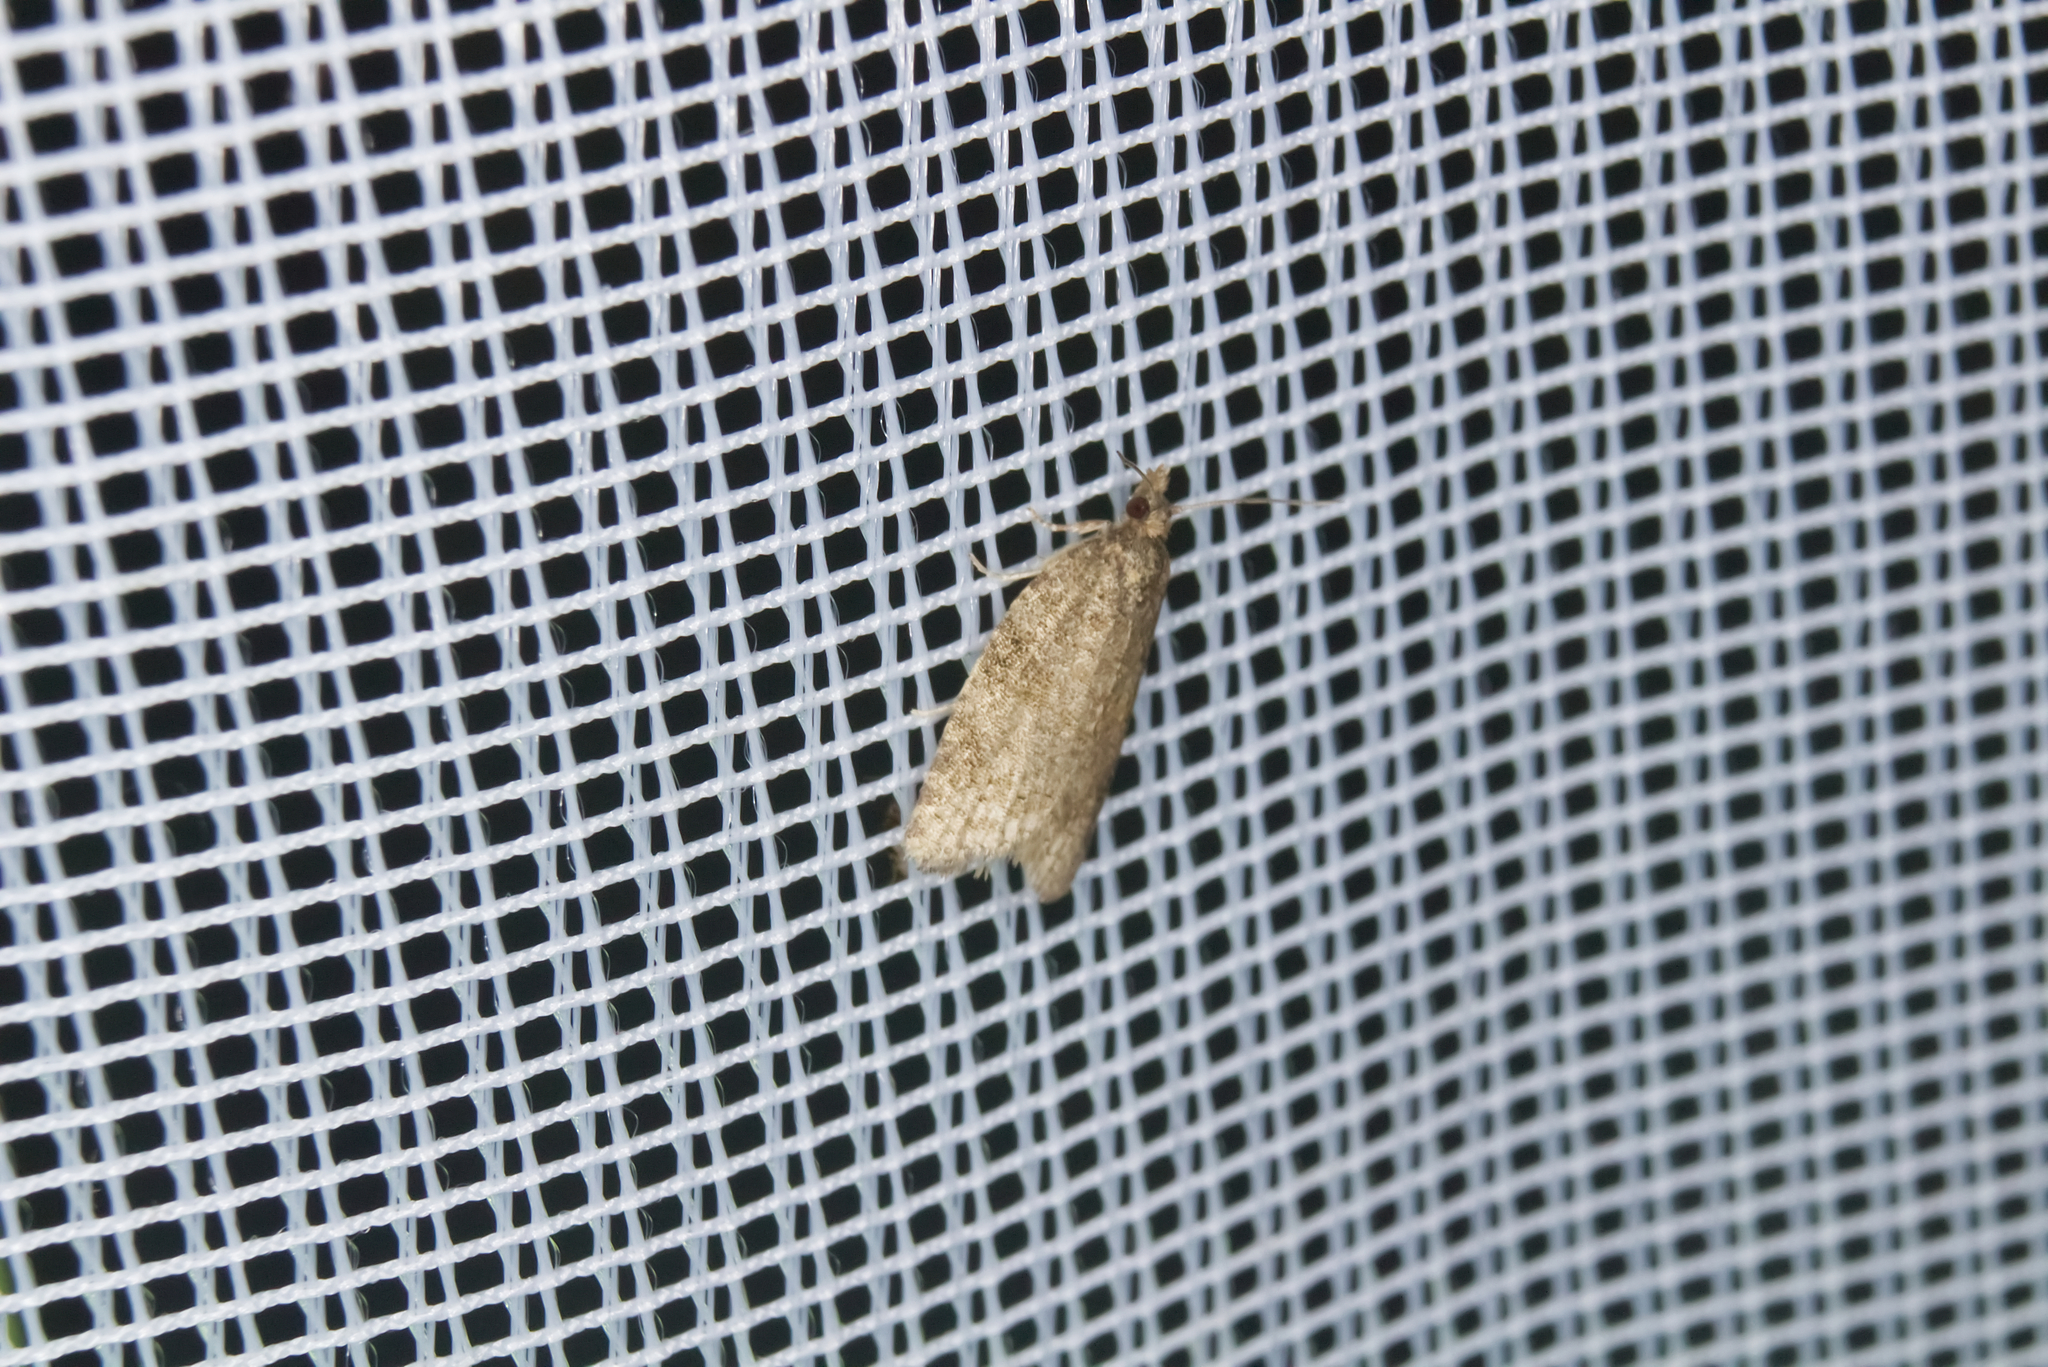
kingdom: Animalia
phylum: Arthropoda
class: Insecta
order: Lepidoptera
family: Tortricidae
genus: Capua
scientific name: Capua vulgana
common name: Common twist
